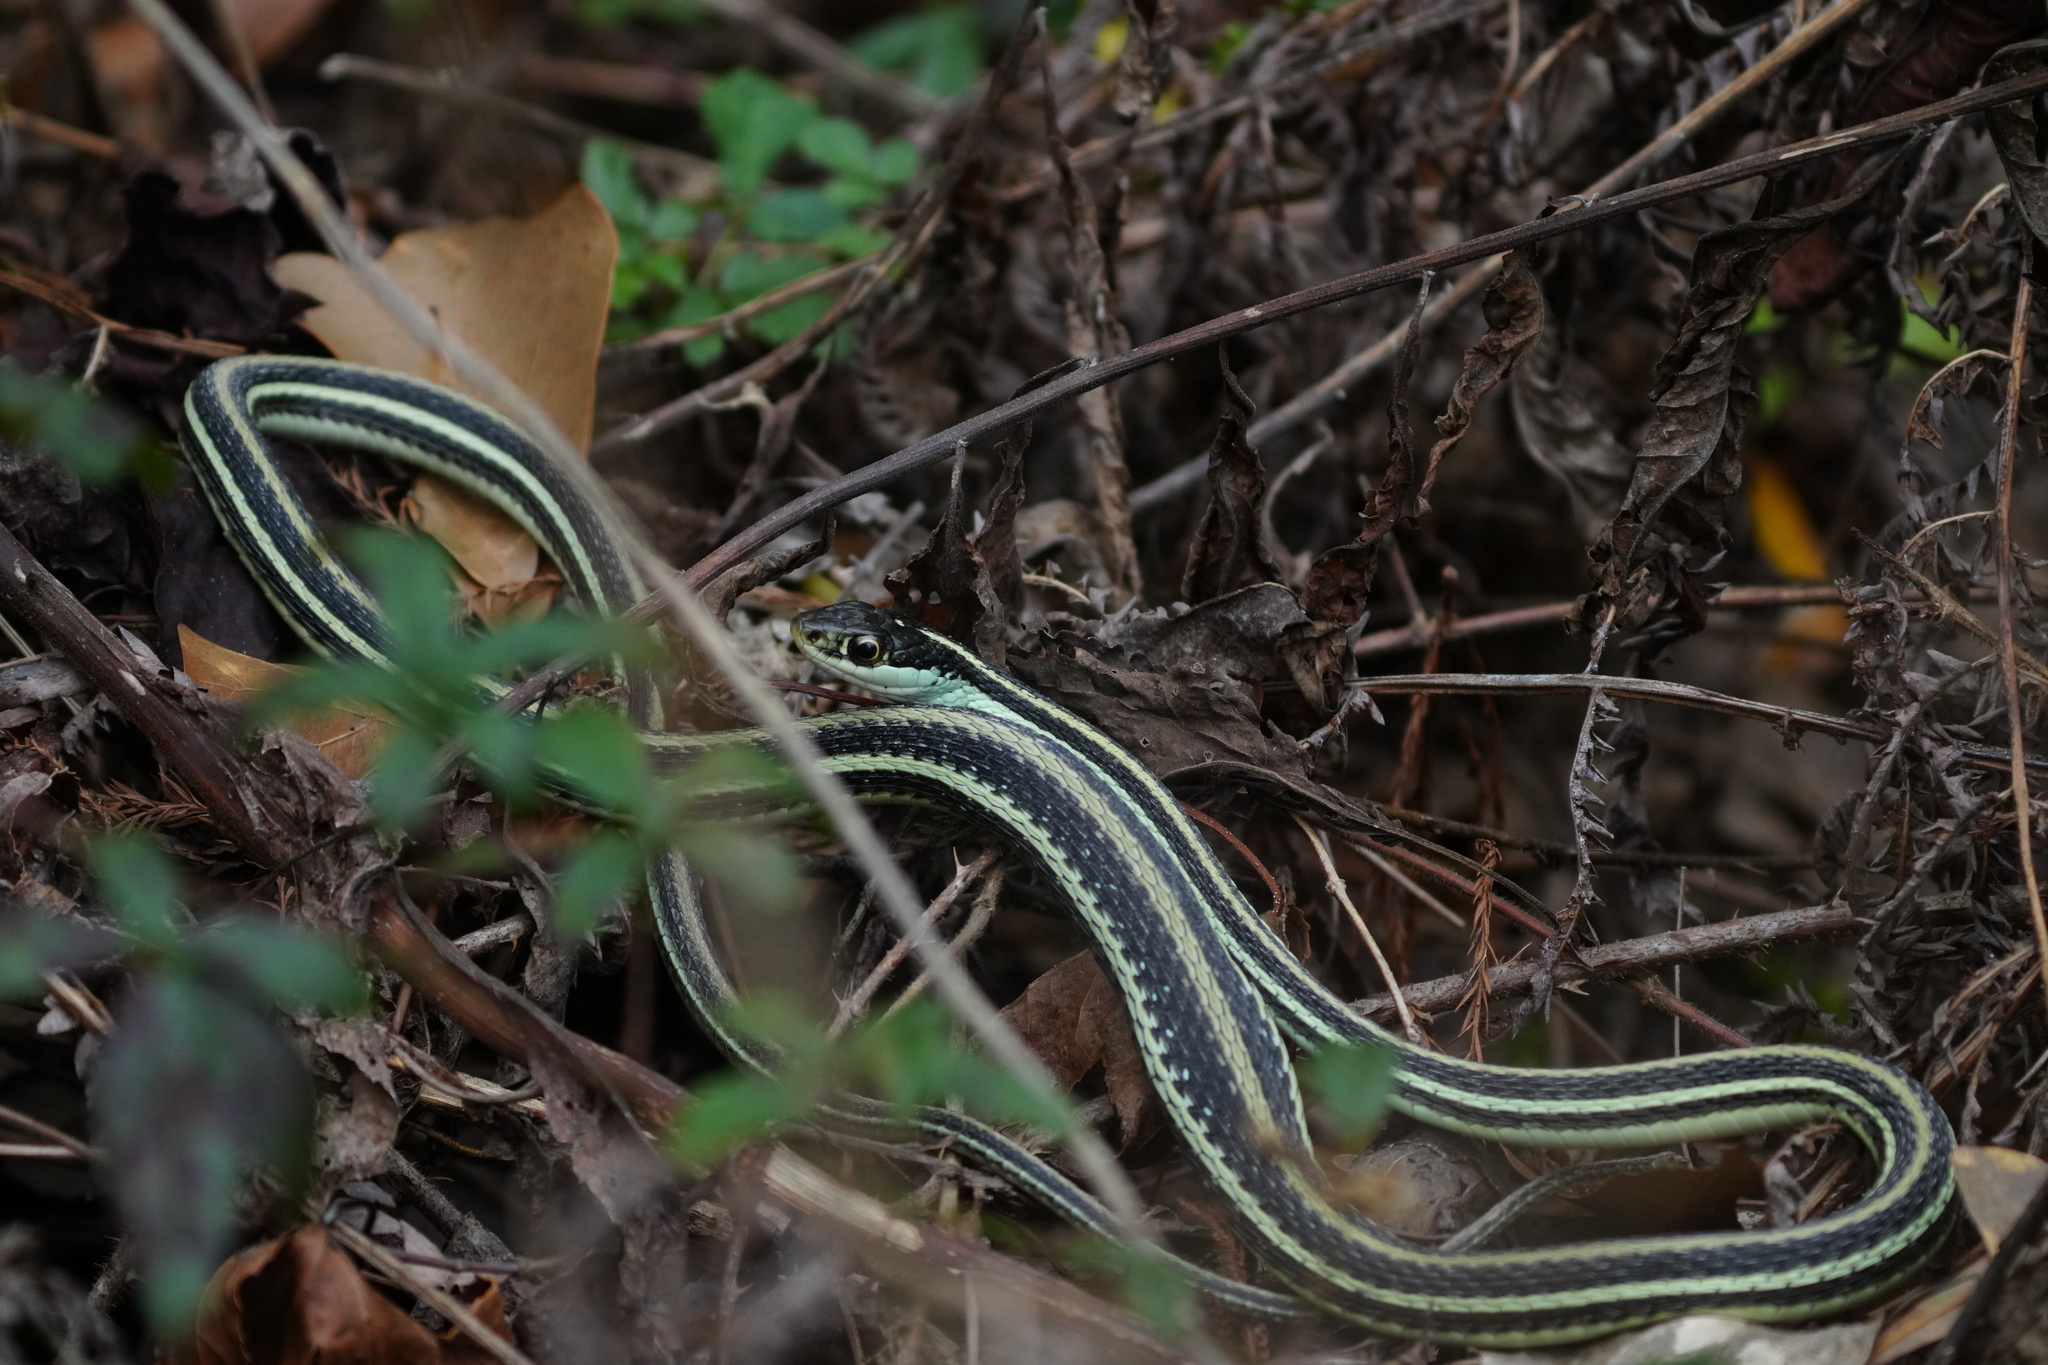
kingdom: Animalia
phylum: Chordata
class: Squamata
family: Colubridae
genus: Thamnophis
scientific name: Thamnophis proximus
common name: Western ribbon snake
